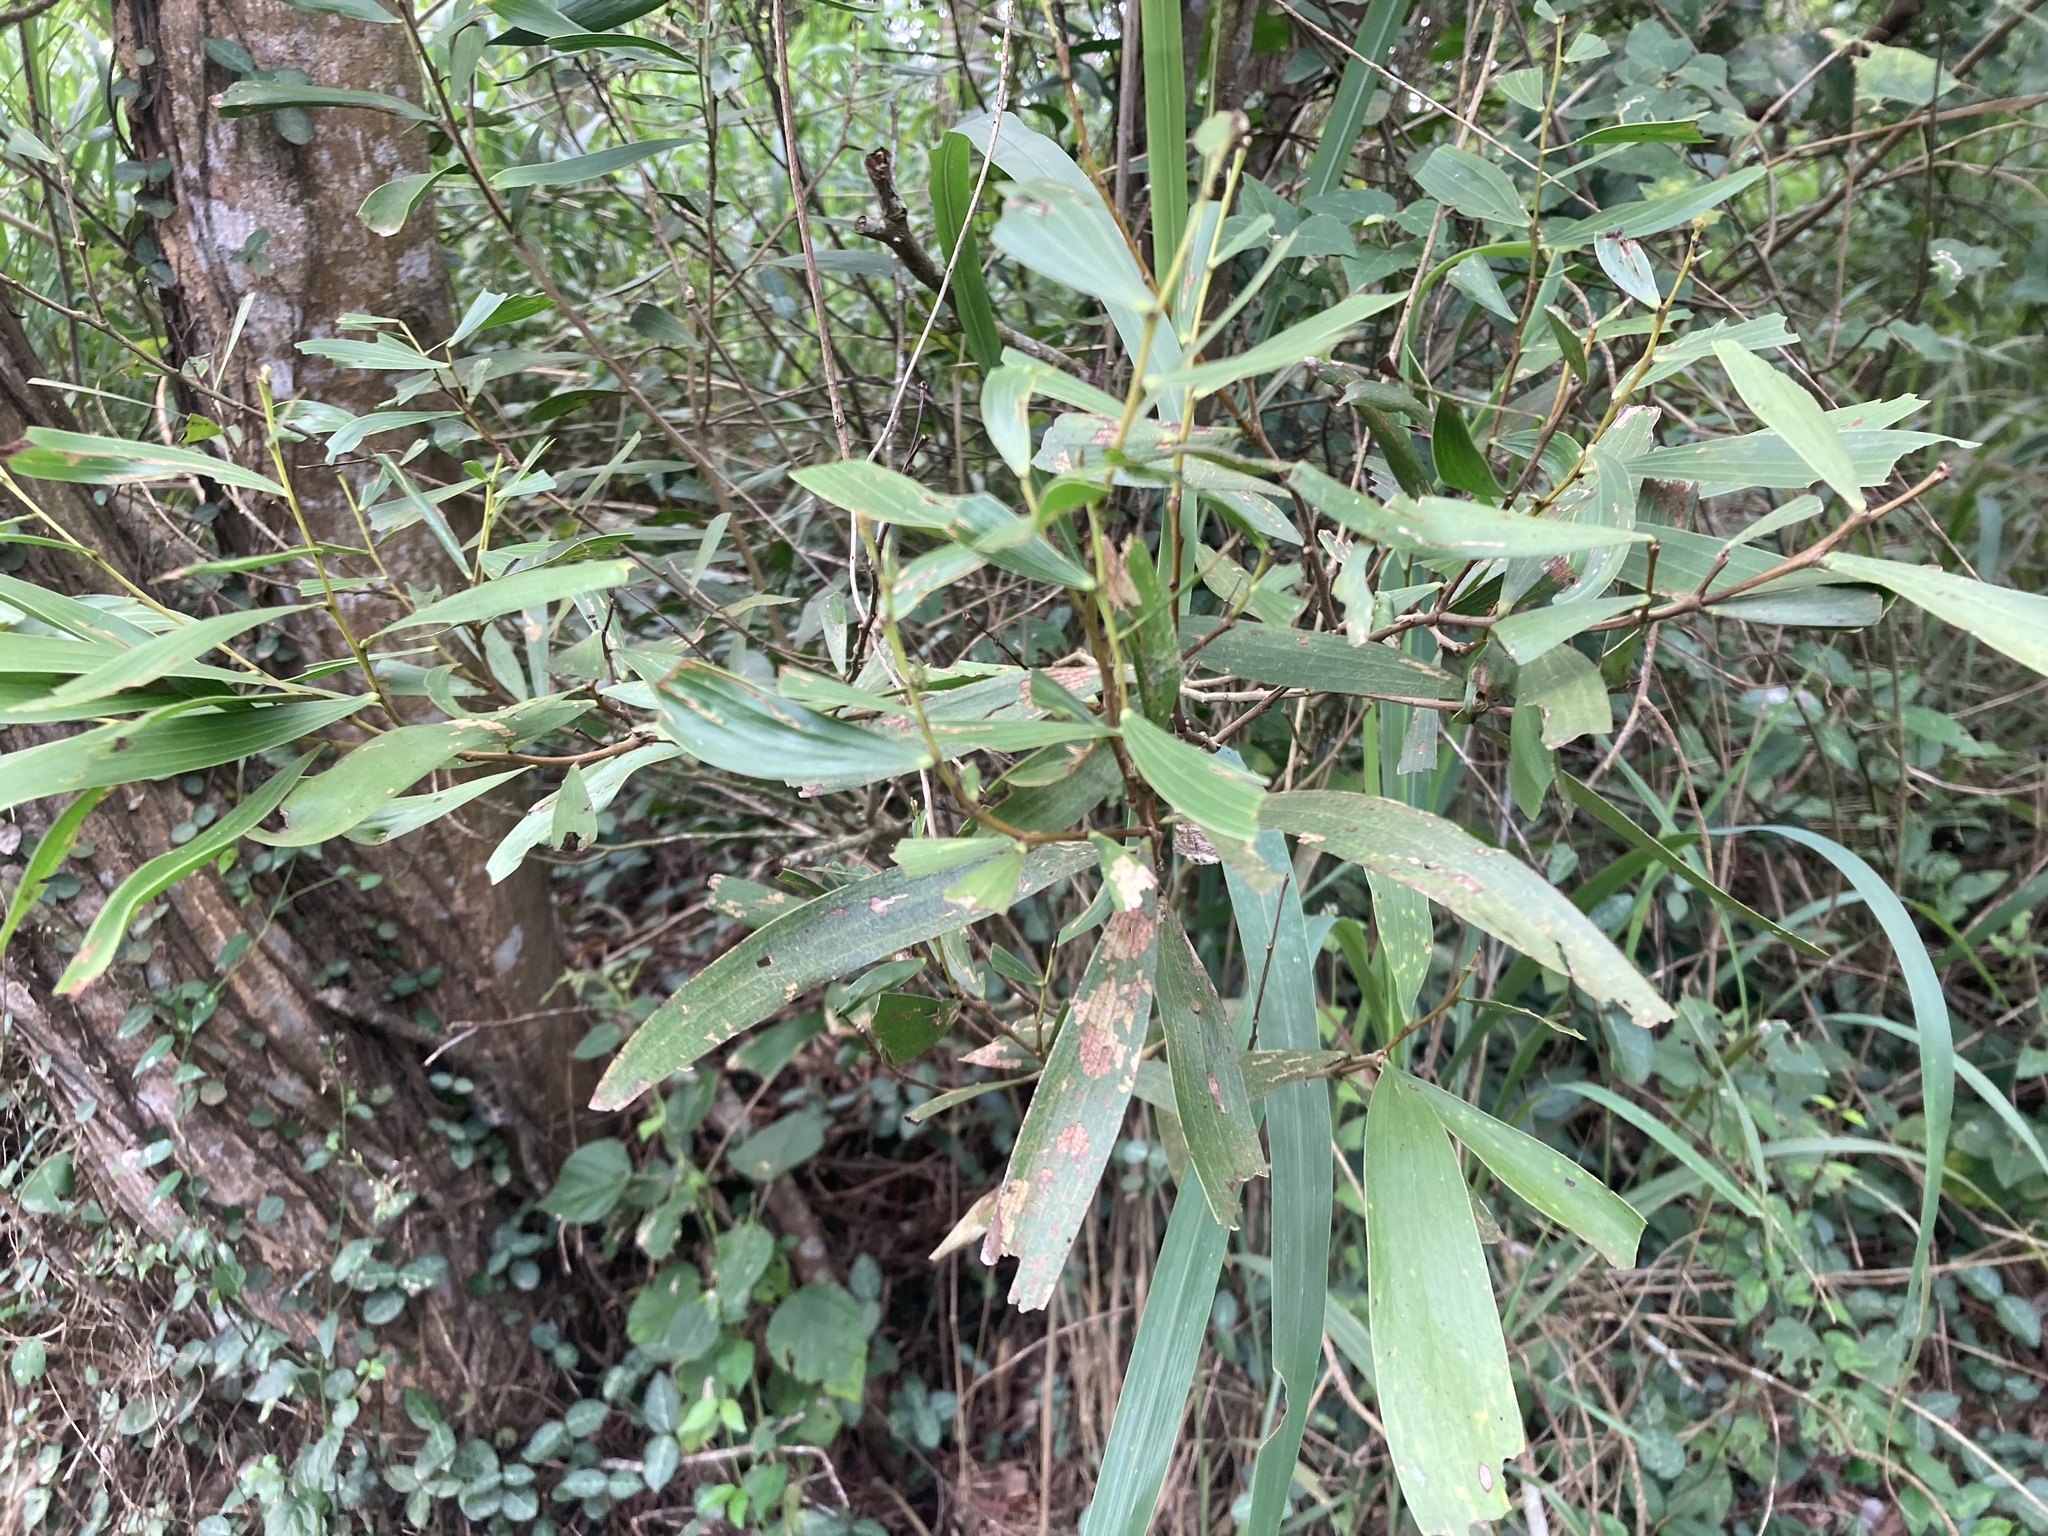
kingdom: Plantae
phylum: Tracheophyta
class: Magnoliopsida
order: Fabales
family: Fabaceae
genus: Acacia
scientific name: Acacia confusa
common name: Formosan koa
